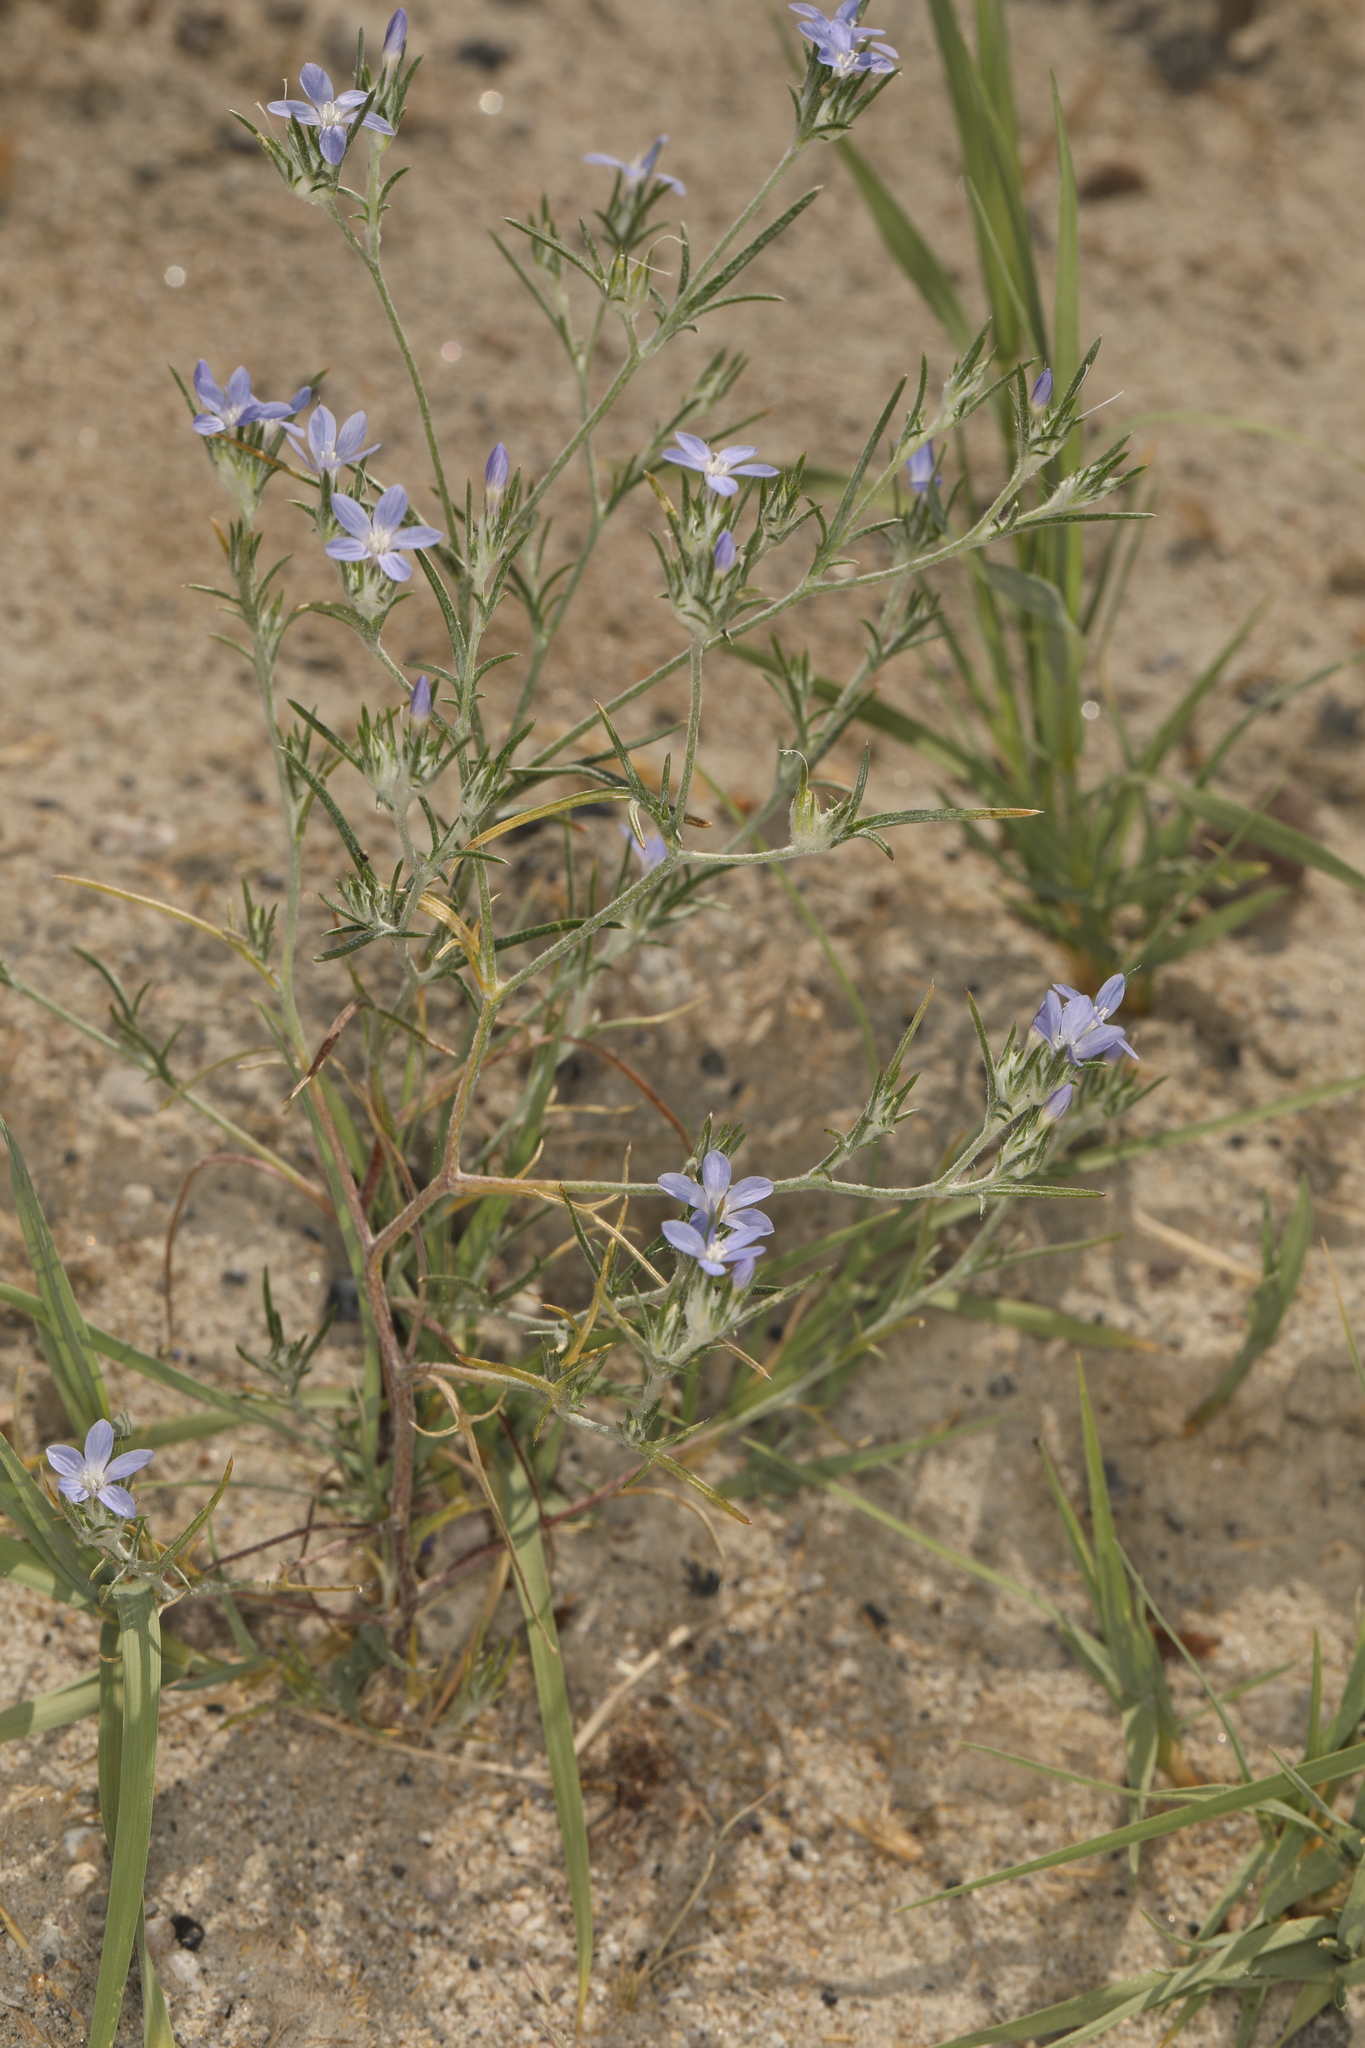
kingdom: Plantae
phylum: Tracheophyta
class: Magnoliopsida
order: Ericales
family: Polemoniaceae
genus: Eriastrum
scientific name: Eriastrum wilcoxii
